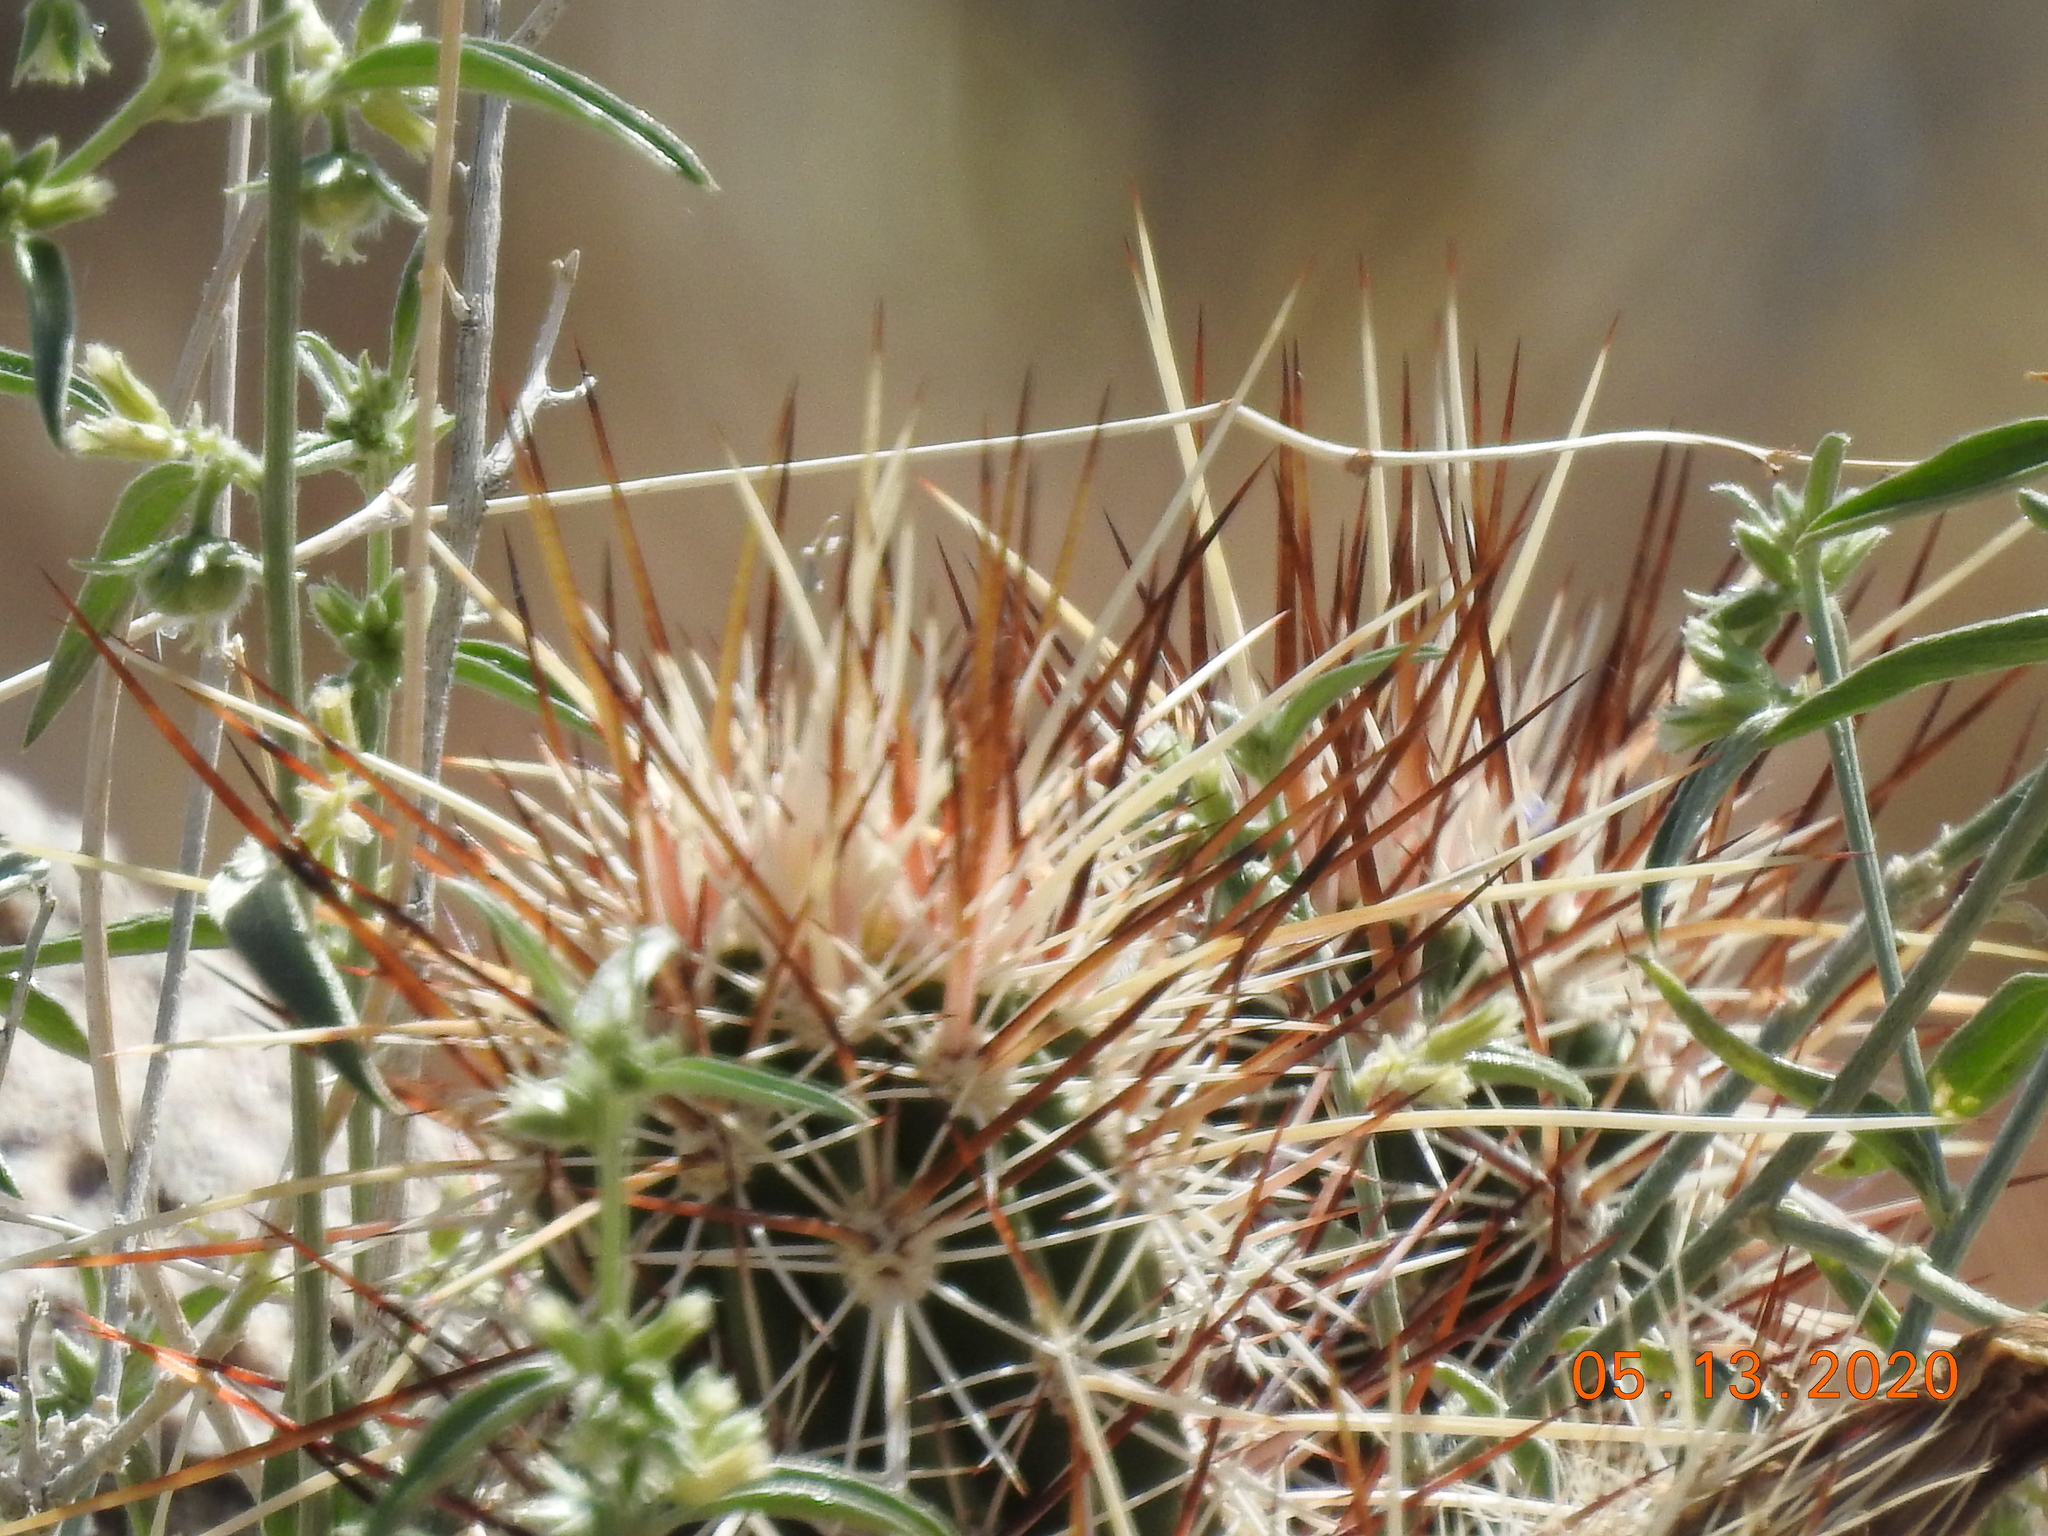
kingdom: Plantae
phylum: Tracheophyta
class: Magnoliopsida
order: Caryophyllales
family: Cactaceae
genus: Echinocereus
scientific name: Echinocereus engelmannii
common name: Engelmann's hedgehog cactus
